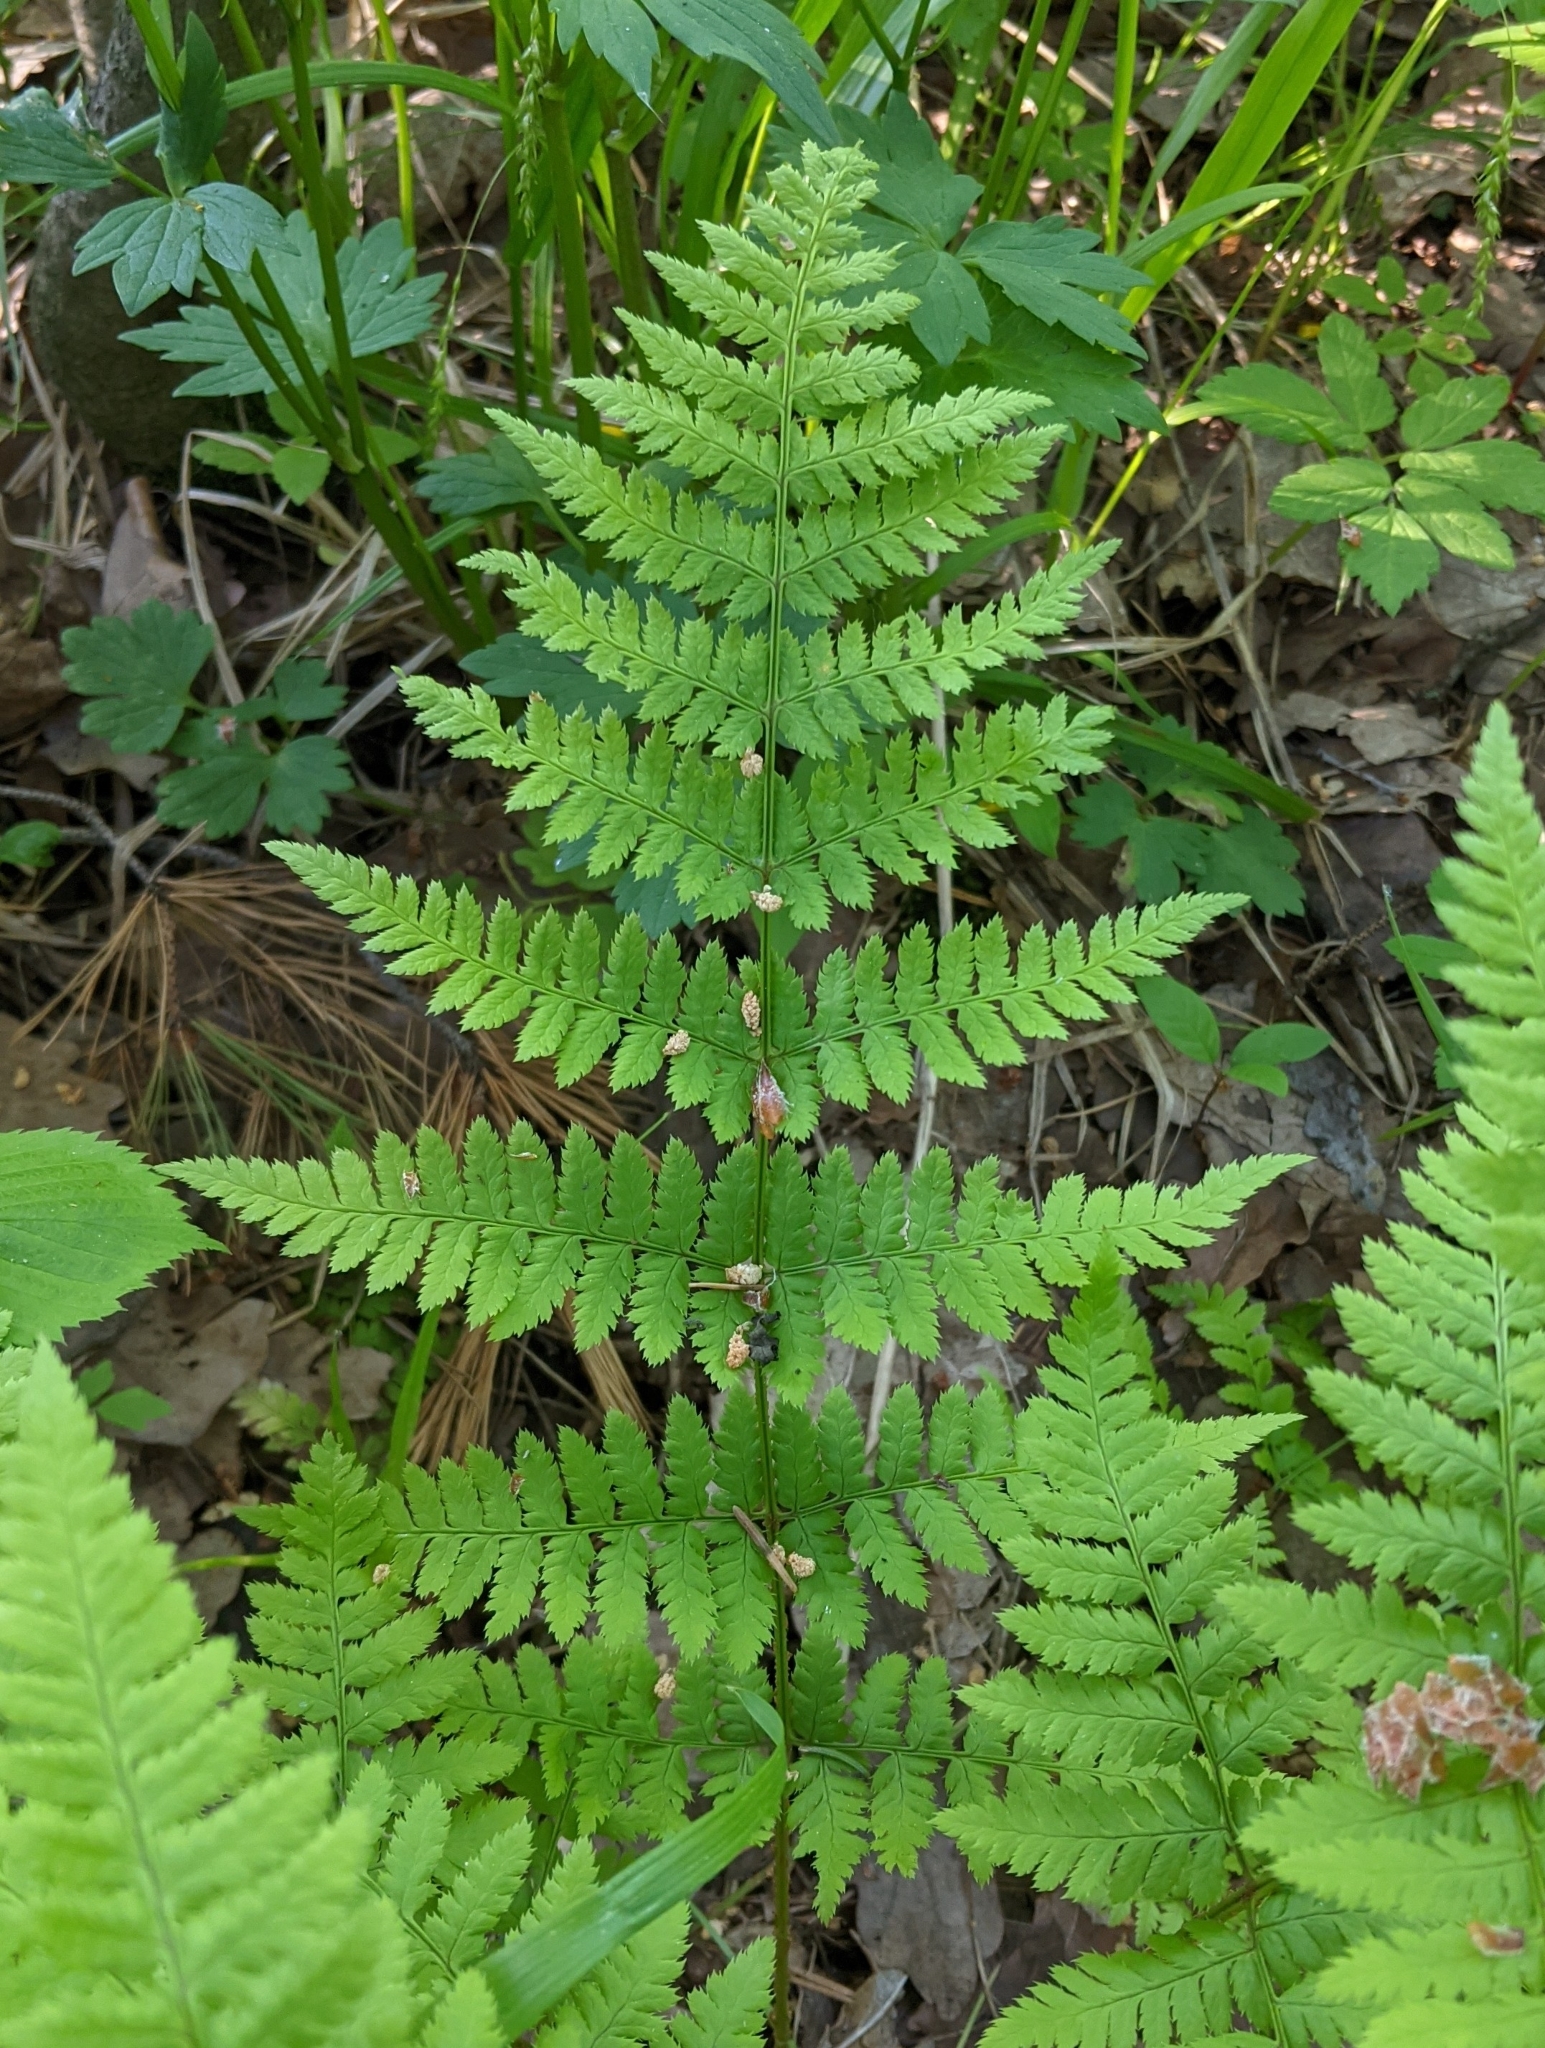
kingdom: Plantae
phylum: Tracheophyta
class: Polypodiopsida
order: Polypodiales
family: Dryopteridaceae
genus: Dryopteris
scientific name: Dryopteris carthusiana
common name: Narrow buckler-fern
